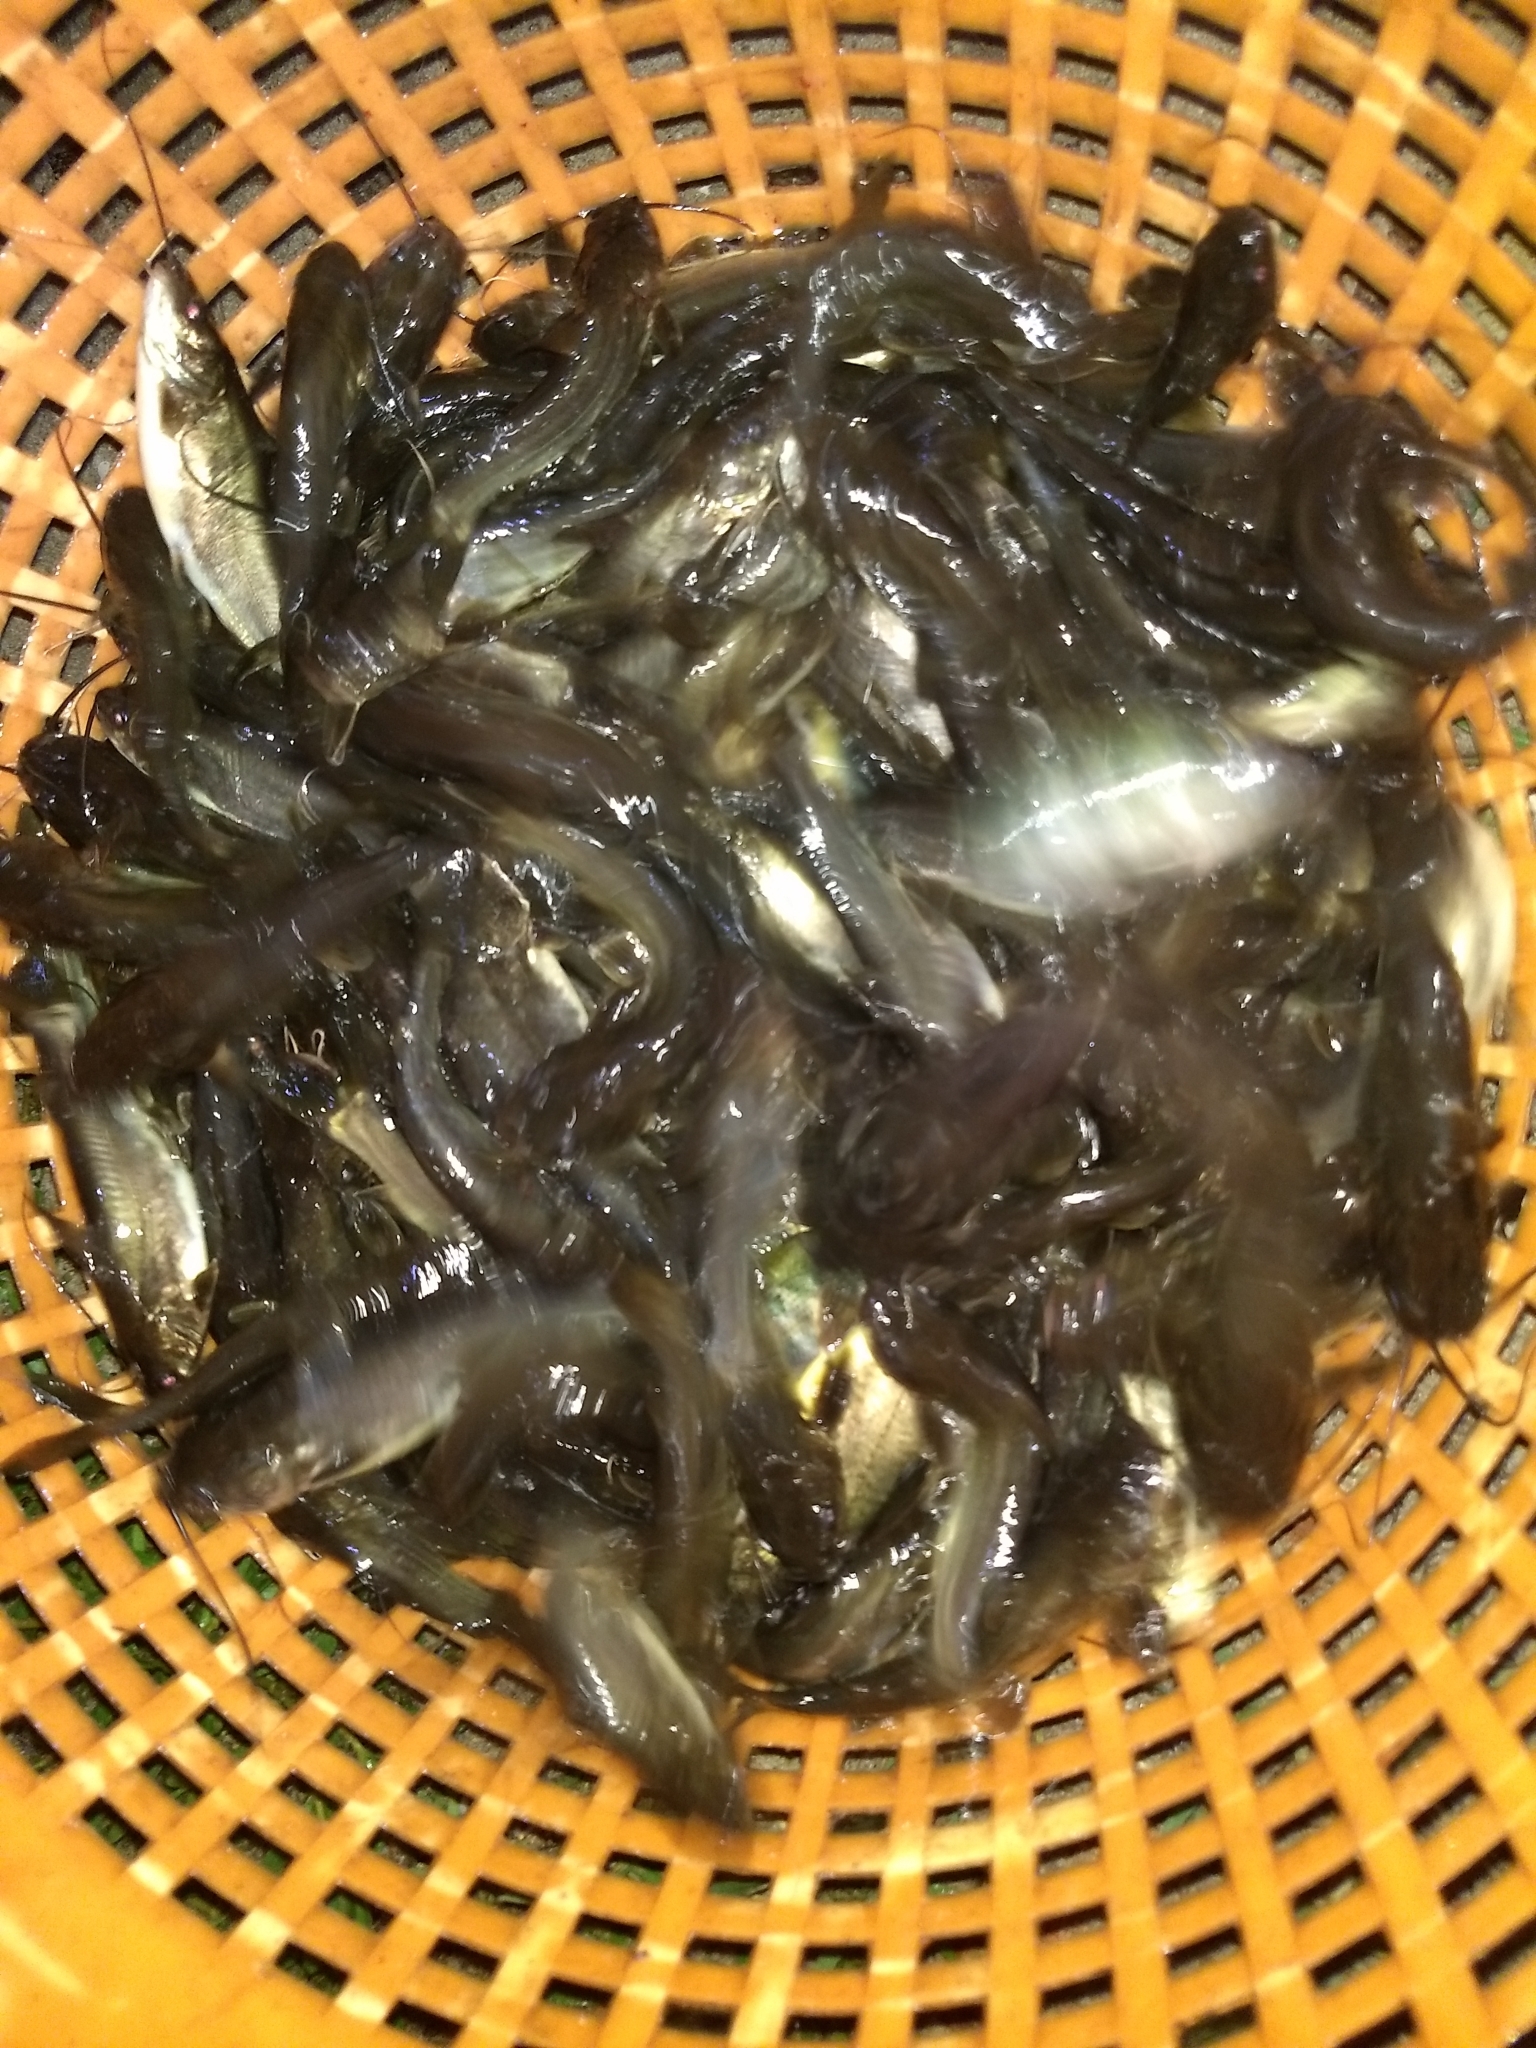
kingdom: Animalia
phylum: Chordata
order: Siluriformes
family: Bagridae
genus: Mystus
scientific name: Mystus gulio
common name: Long whiskers catfish
